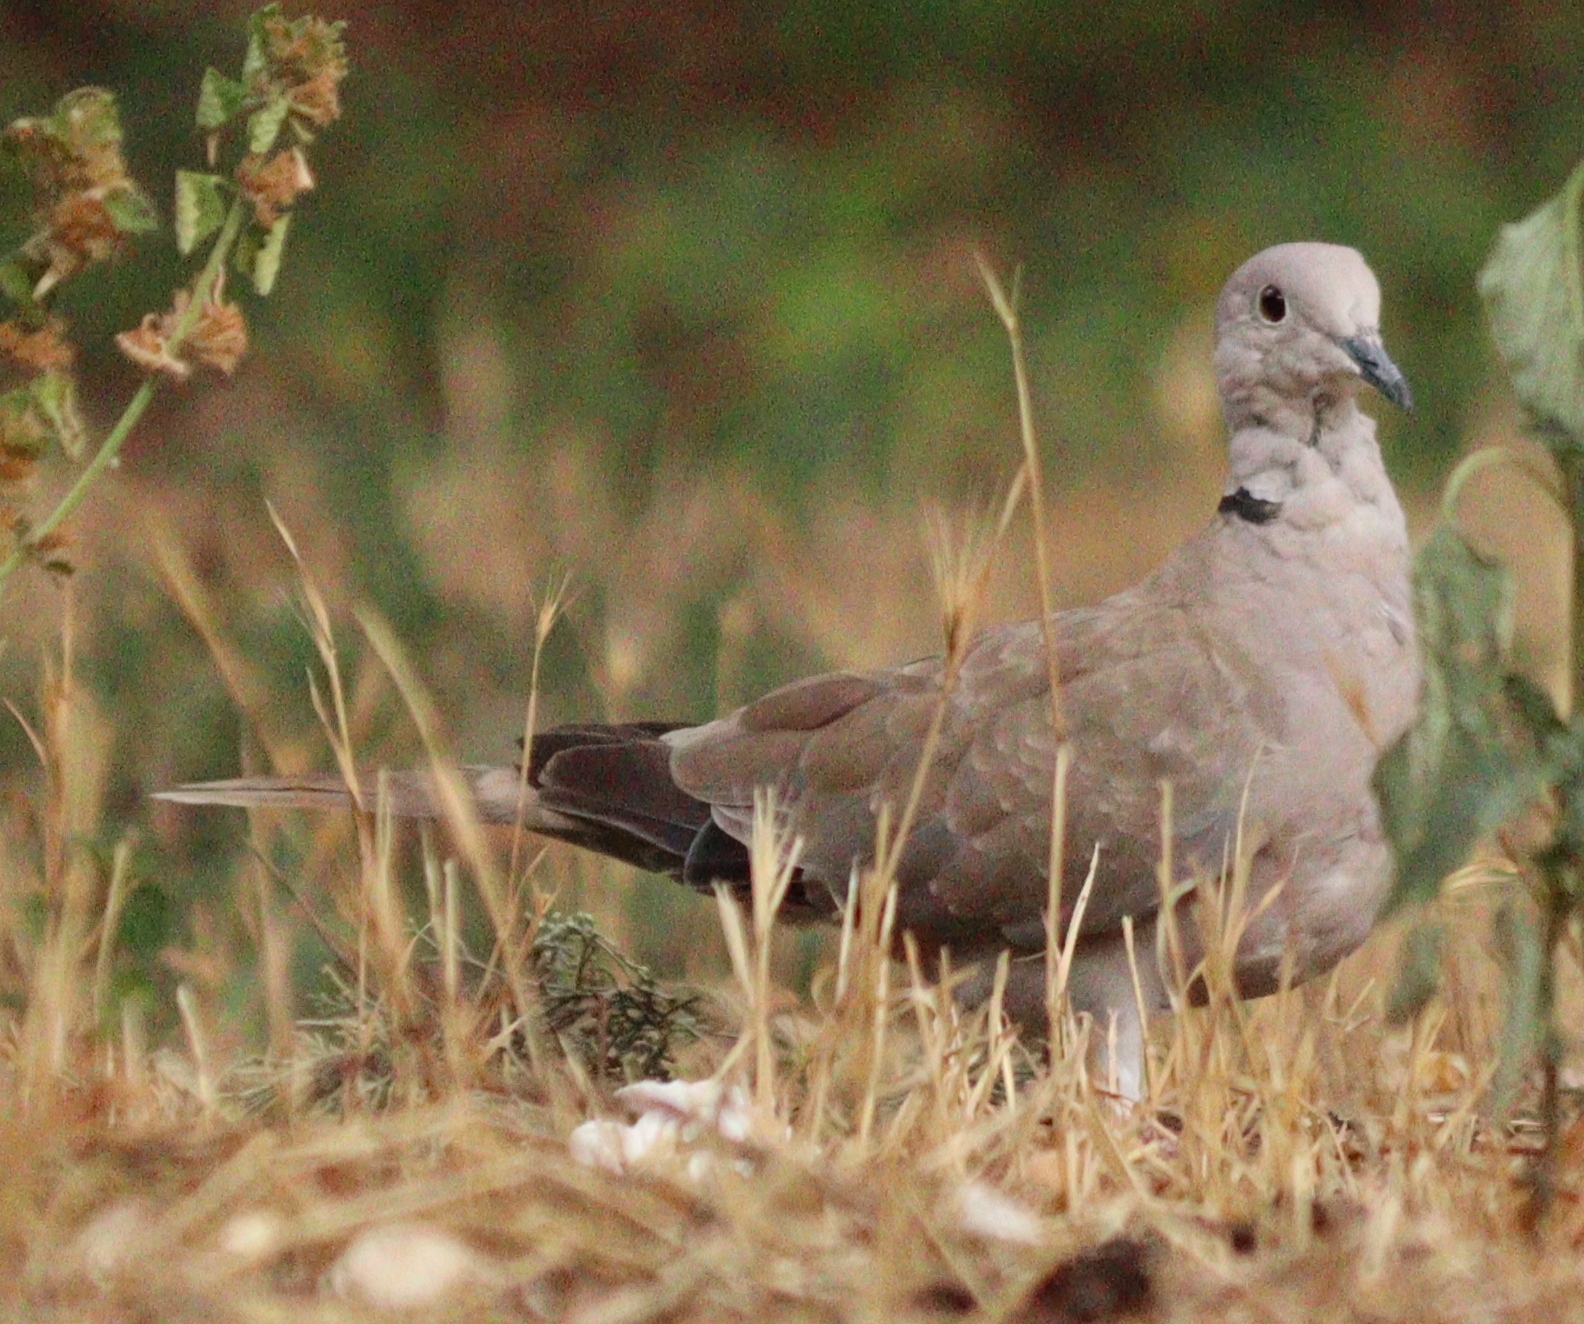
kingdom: Animalia
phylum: Chordata
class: Aves
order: Columbiformes
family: Columbidae
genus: Streptopelia
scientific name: Streptopelia decaocto
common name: Eurasian collared dove
